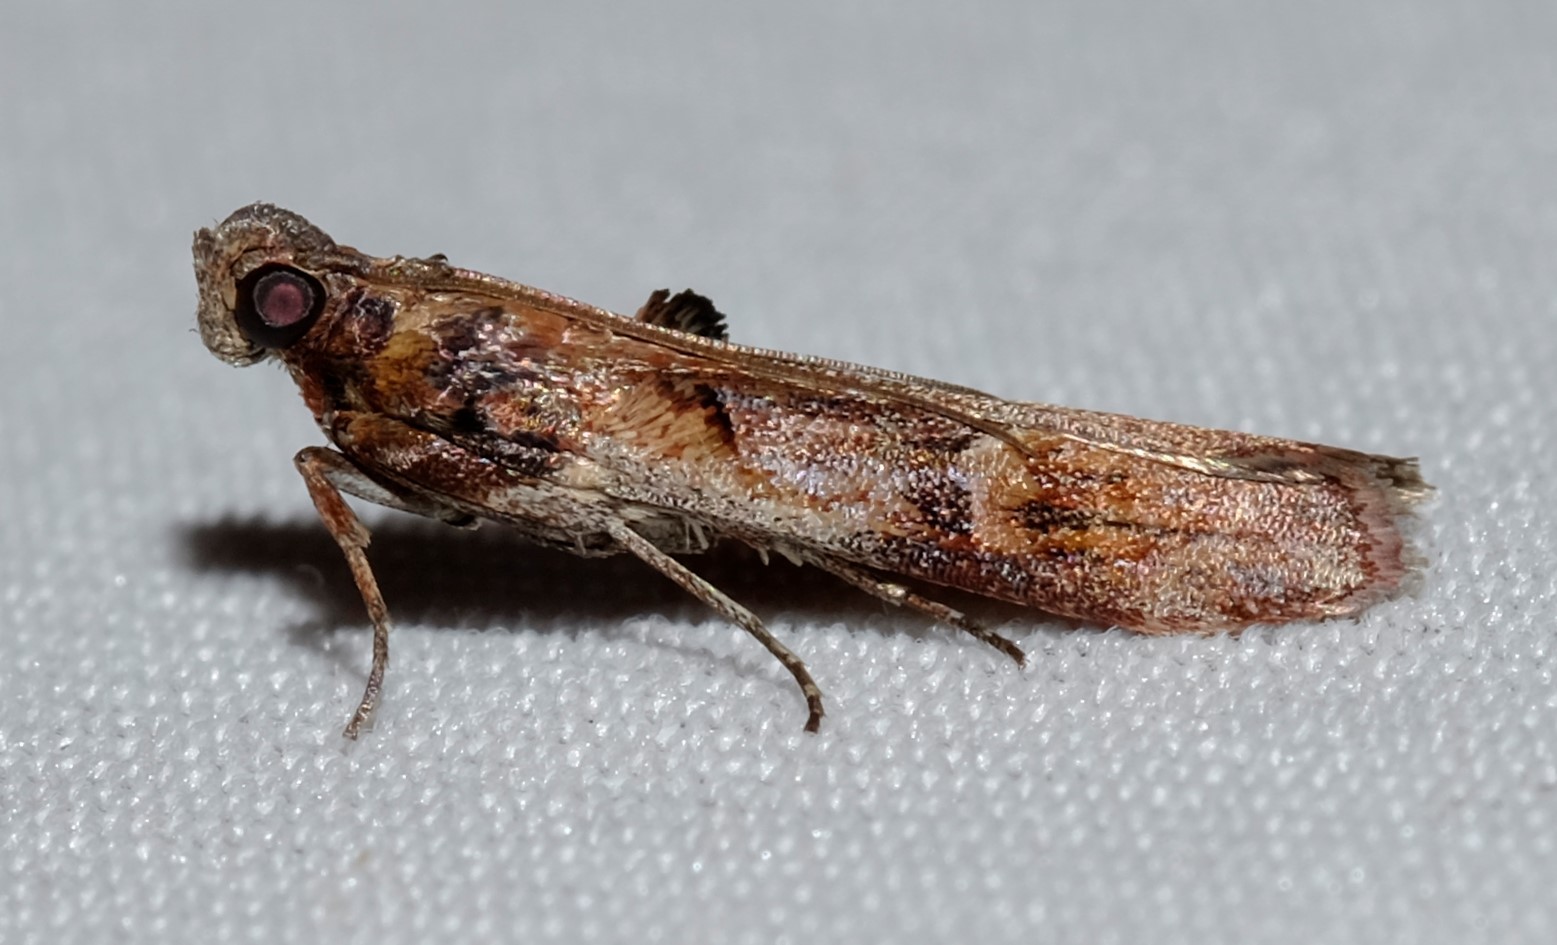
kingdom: Animalia
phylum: Arthropoda
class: Insecta
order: Lepidoptera
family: Pyralidae
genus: Balanomis
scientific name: Balanomis encyclia
